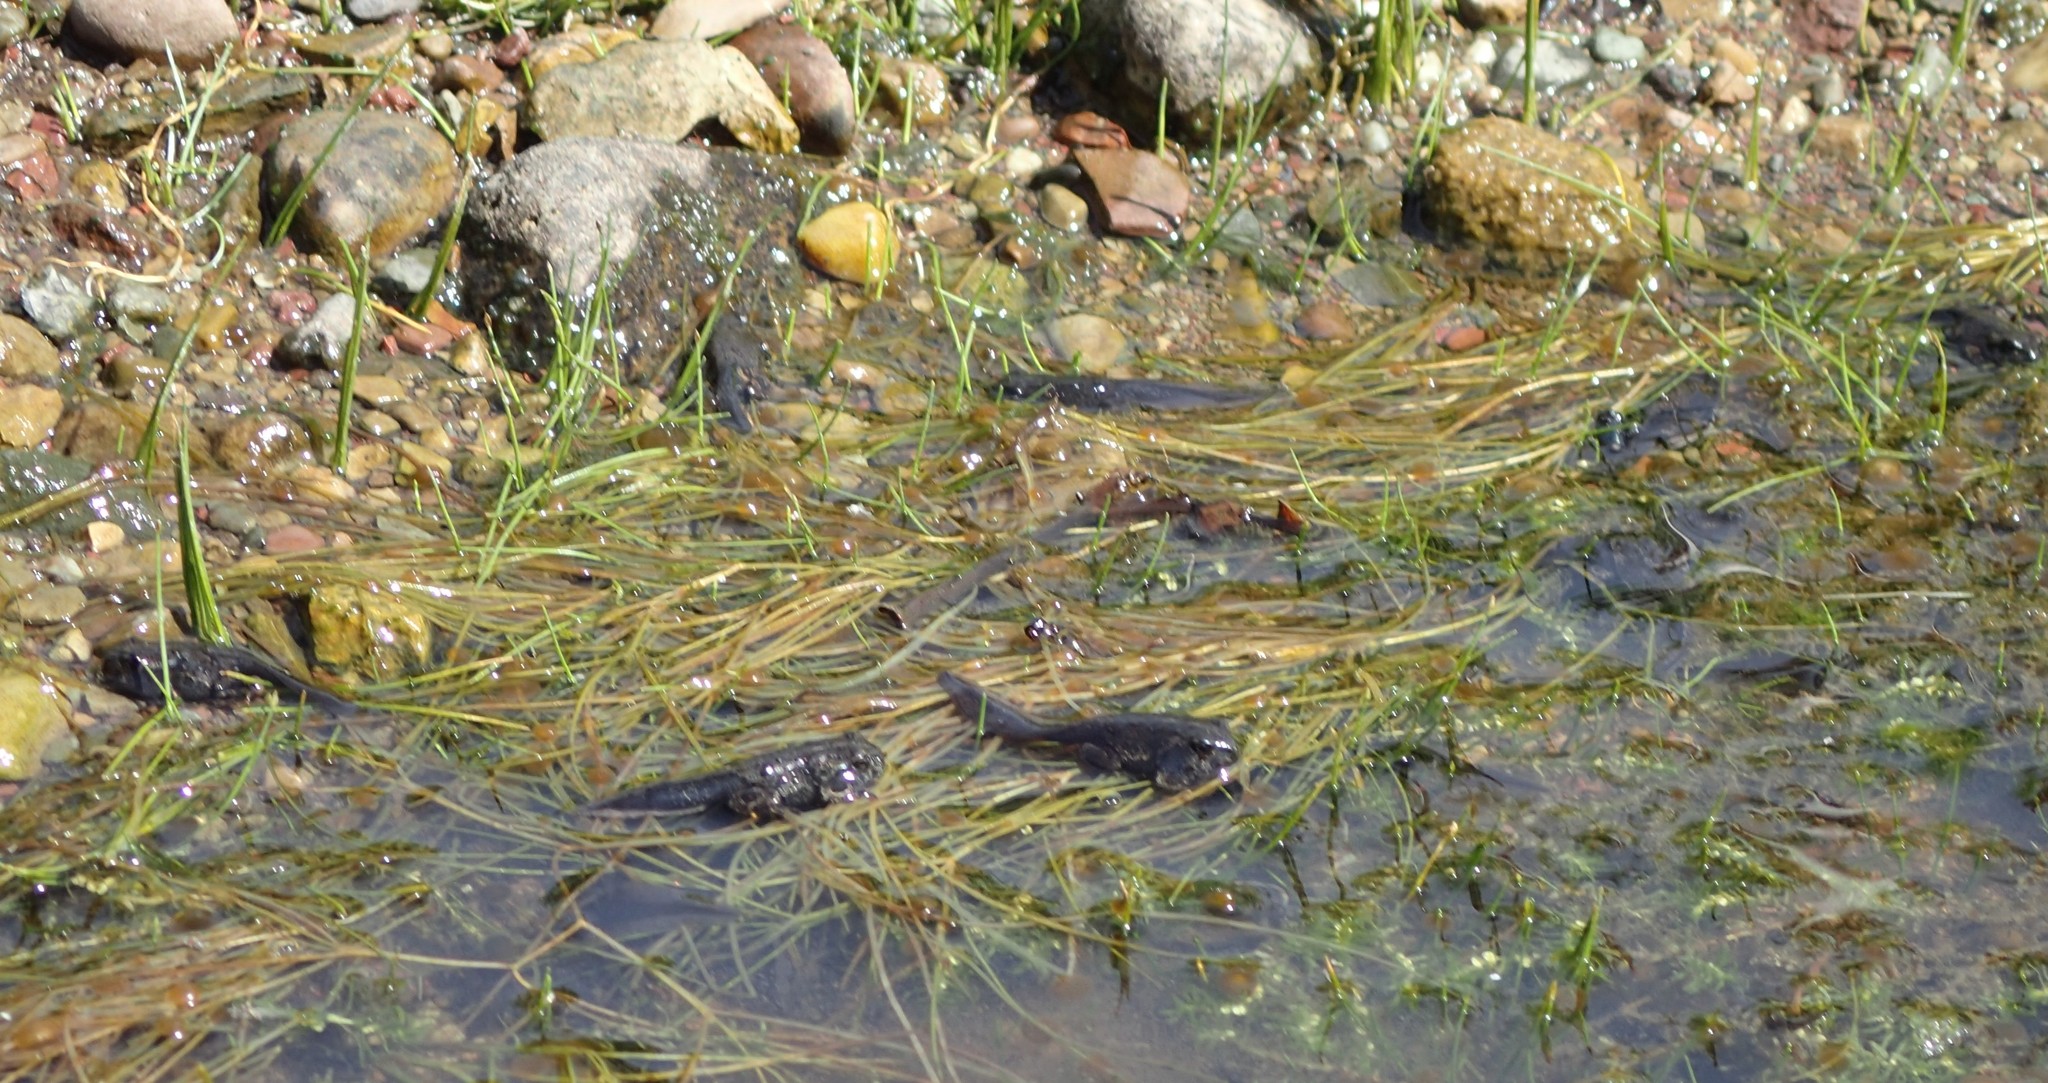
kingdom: Animalia
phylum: Chordata
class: Amphibia
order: Anura
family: Bufonidae
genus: Anaxyrus
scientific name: Anaxyrus boreas
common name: Western toad
